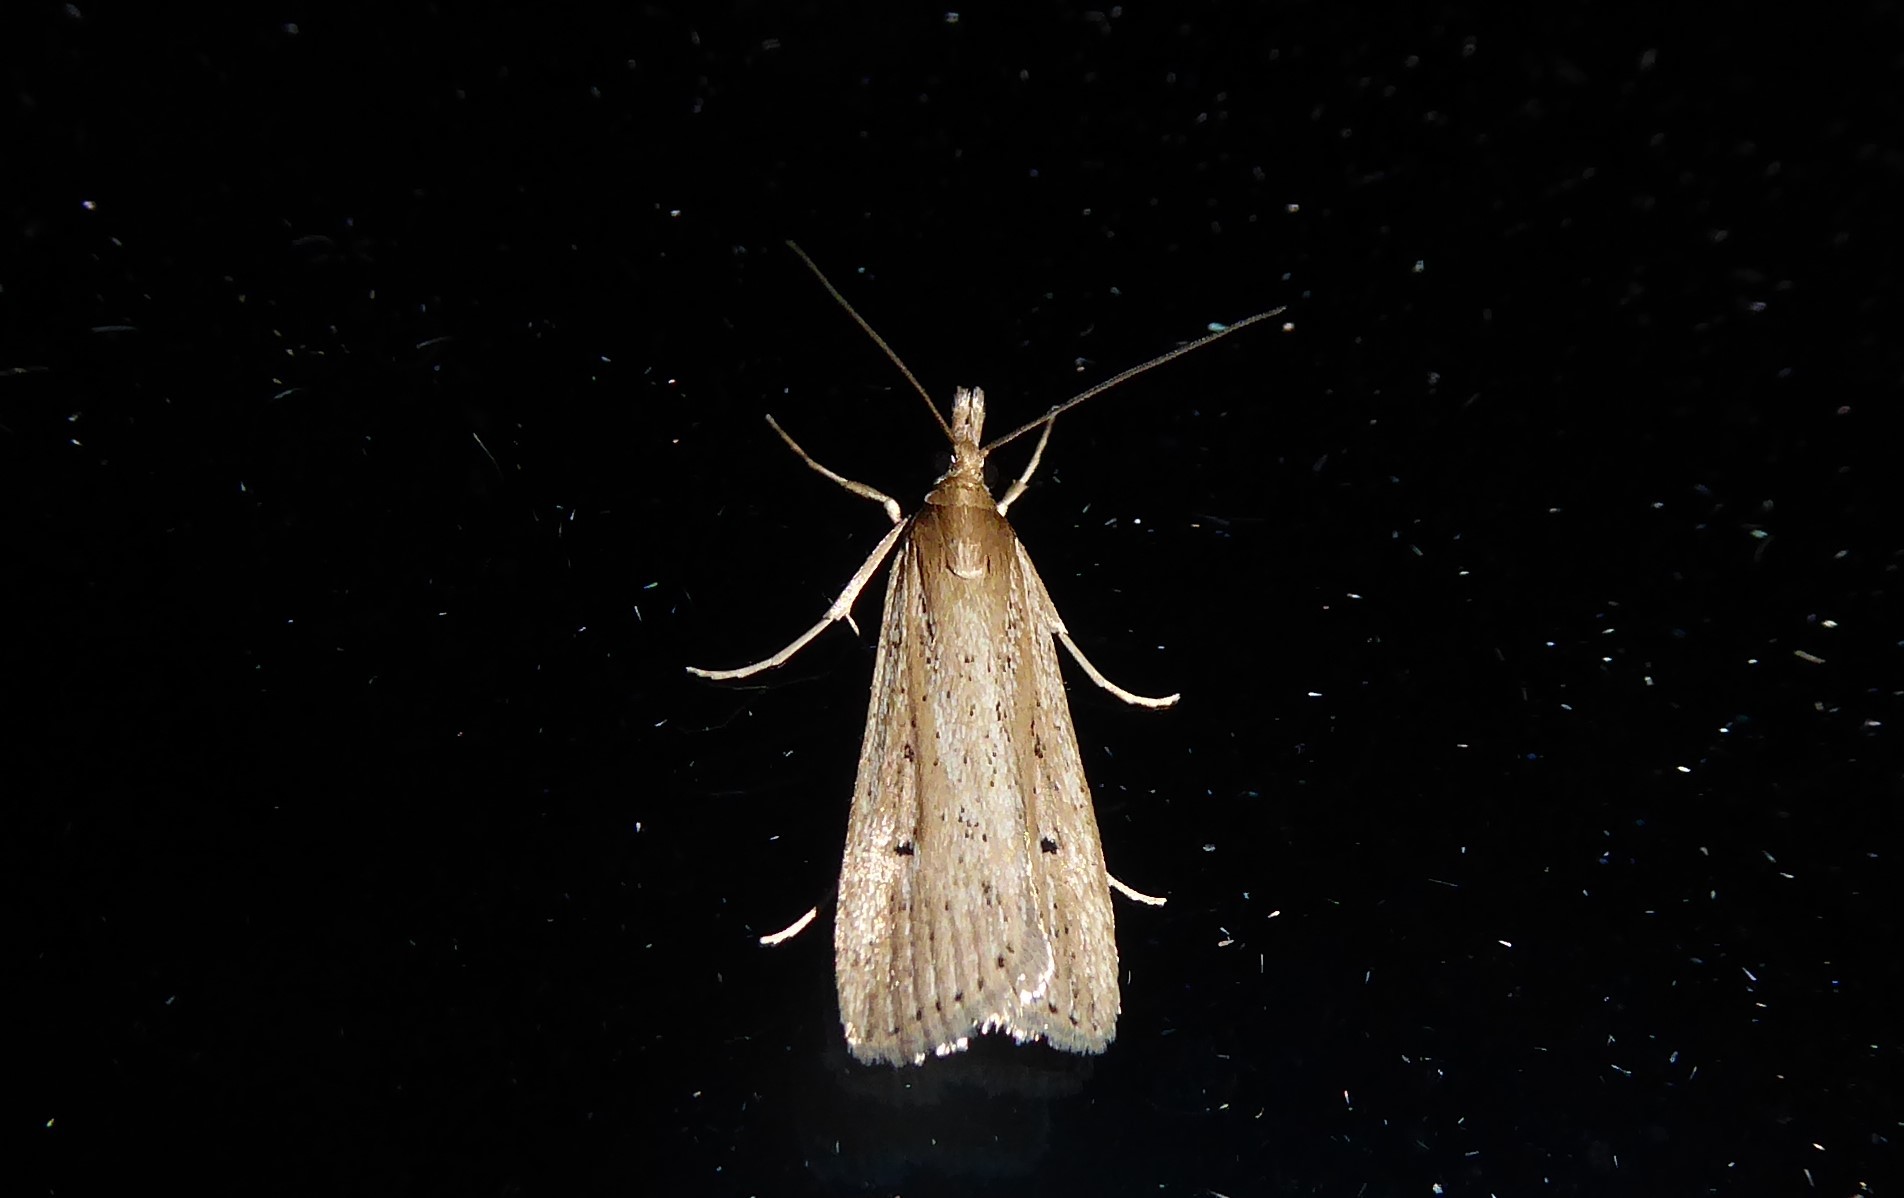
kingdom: Animalia
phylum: Arthropoda
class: Insecta
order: Lepidoptera
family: Crambidae
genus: Eudonia
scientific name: Eudonia sabulosella
